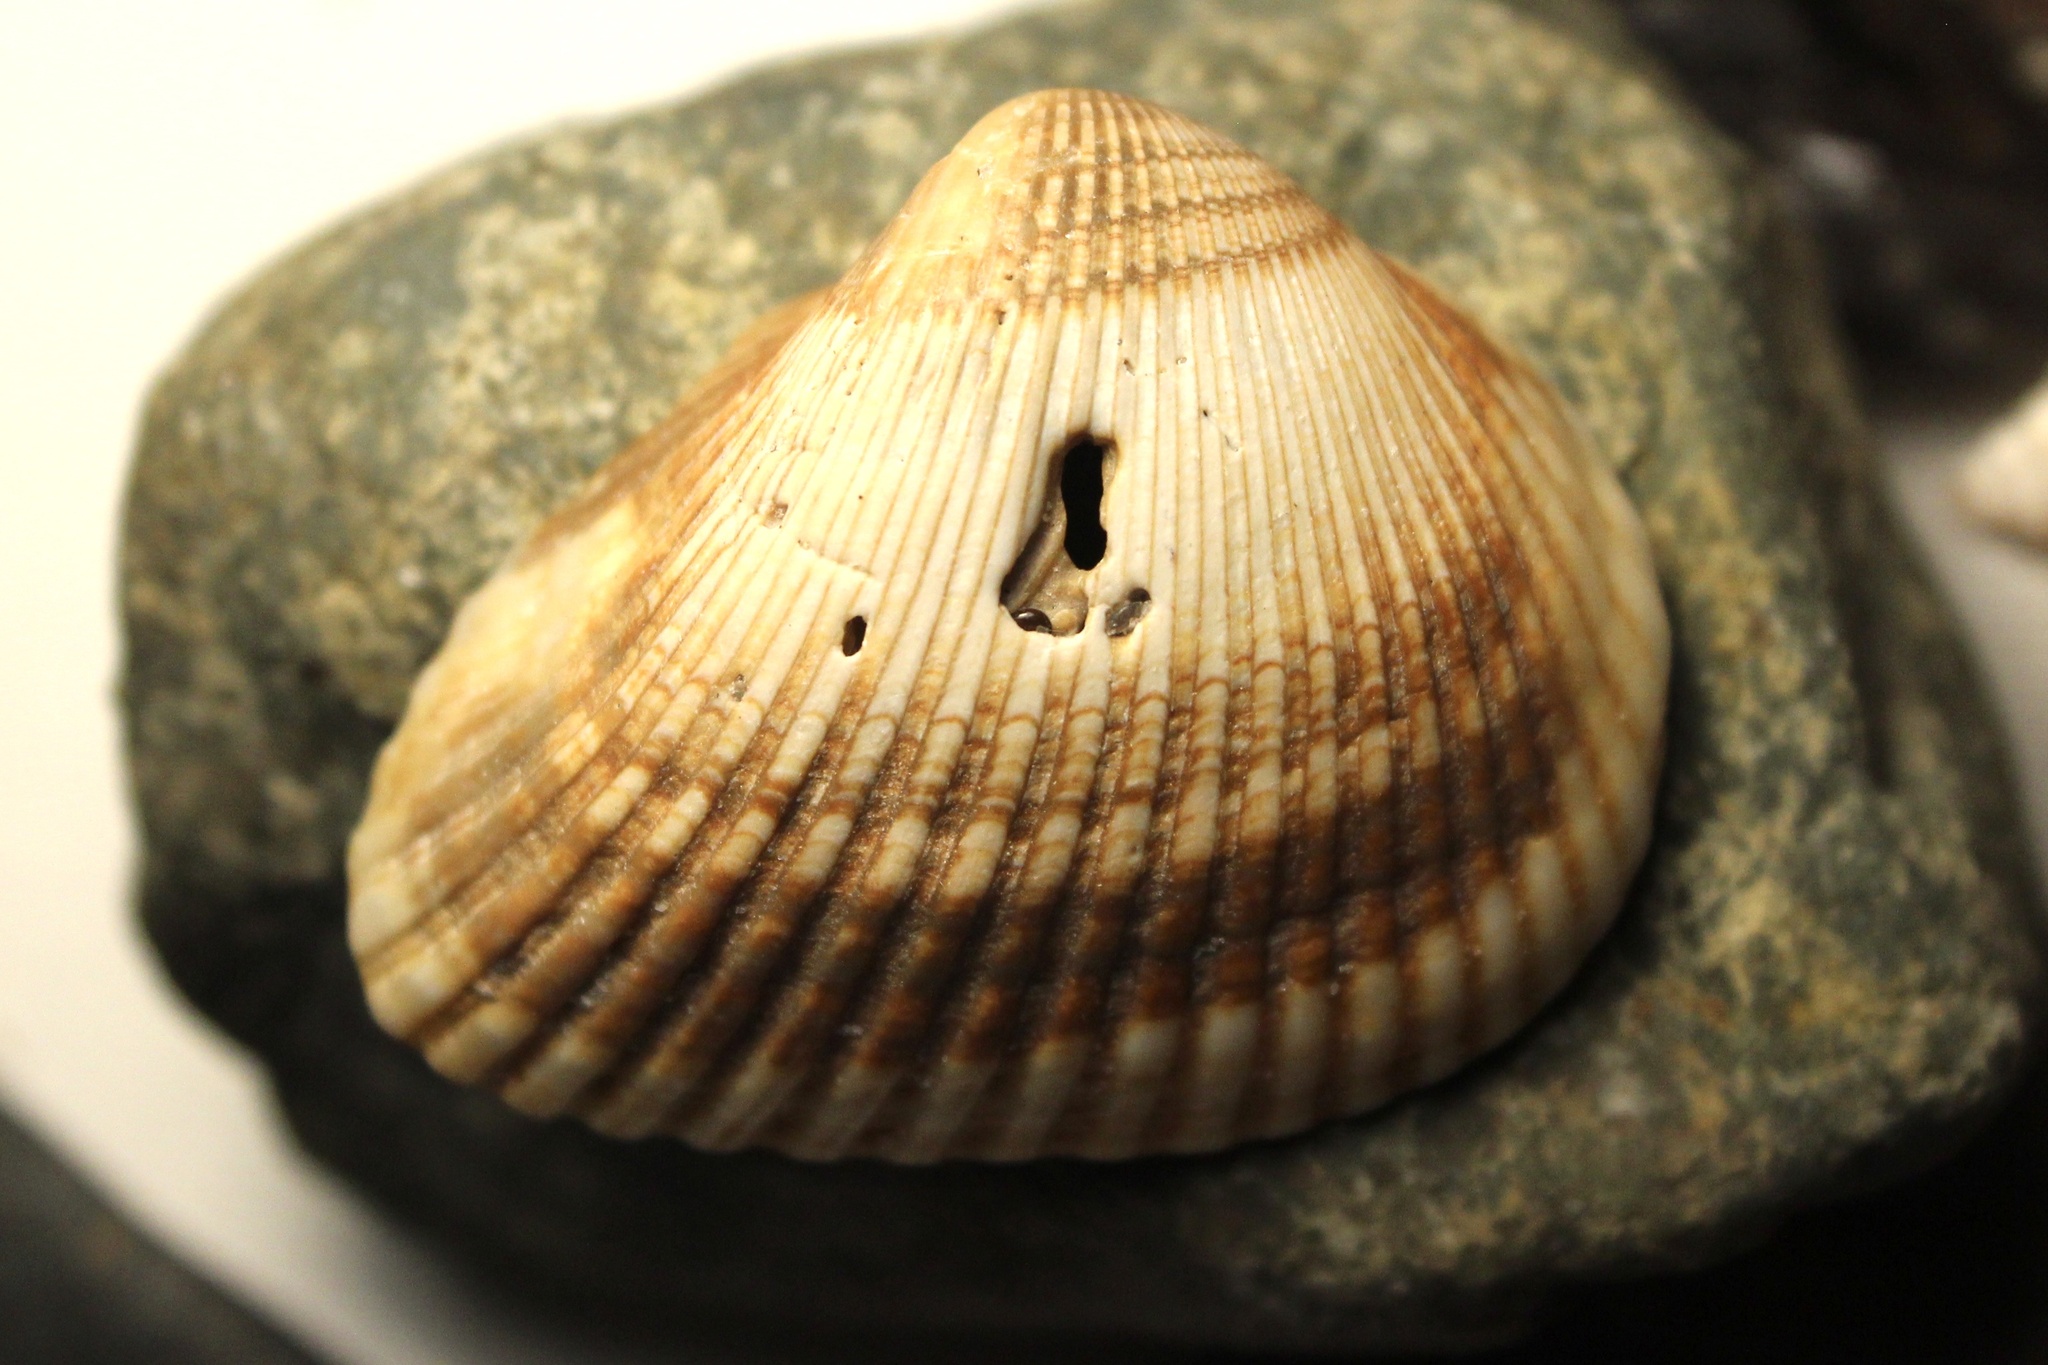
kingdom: Animalia
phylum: Mollusca
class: Bivalvia
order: Arcida
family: Noetiidae
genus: Noetia
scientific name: Noetia ponderosa
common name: Ponderous ark
